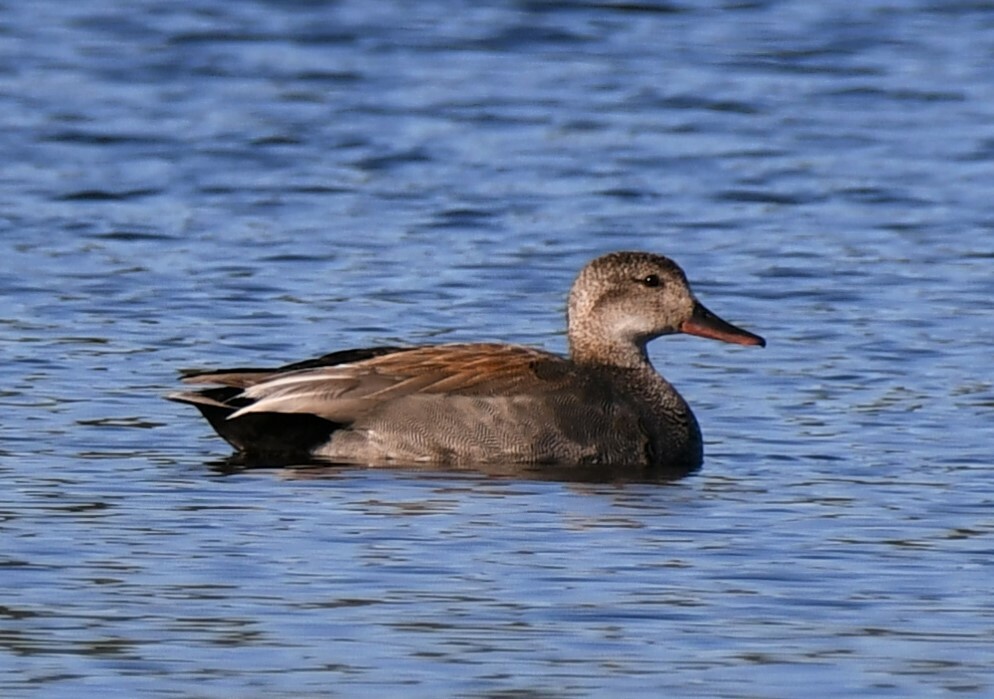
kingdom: Animalia
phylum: Chordata
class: Aves
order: Anseriformes
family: Anatidae
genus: Mareca
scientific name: Mareca strepera
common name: Gadwall
